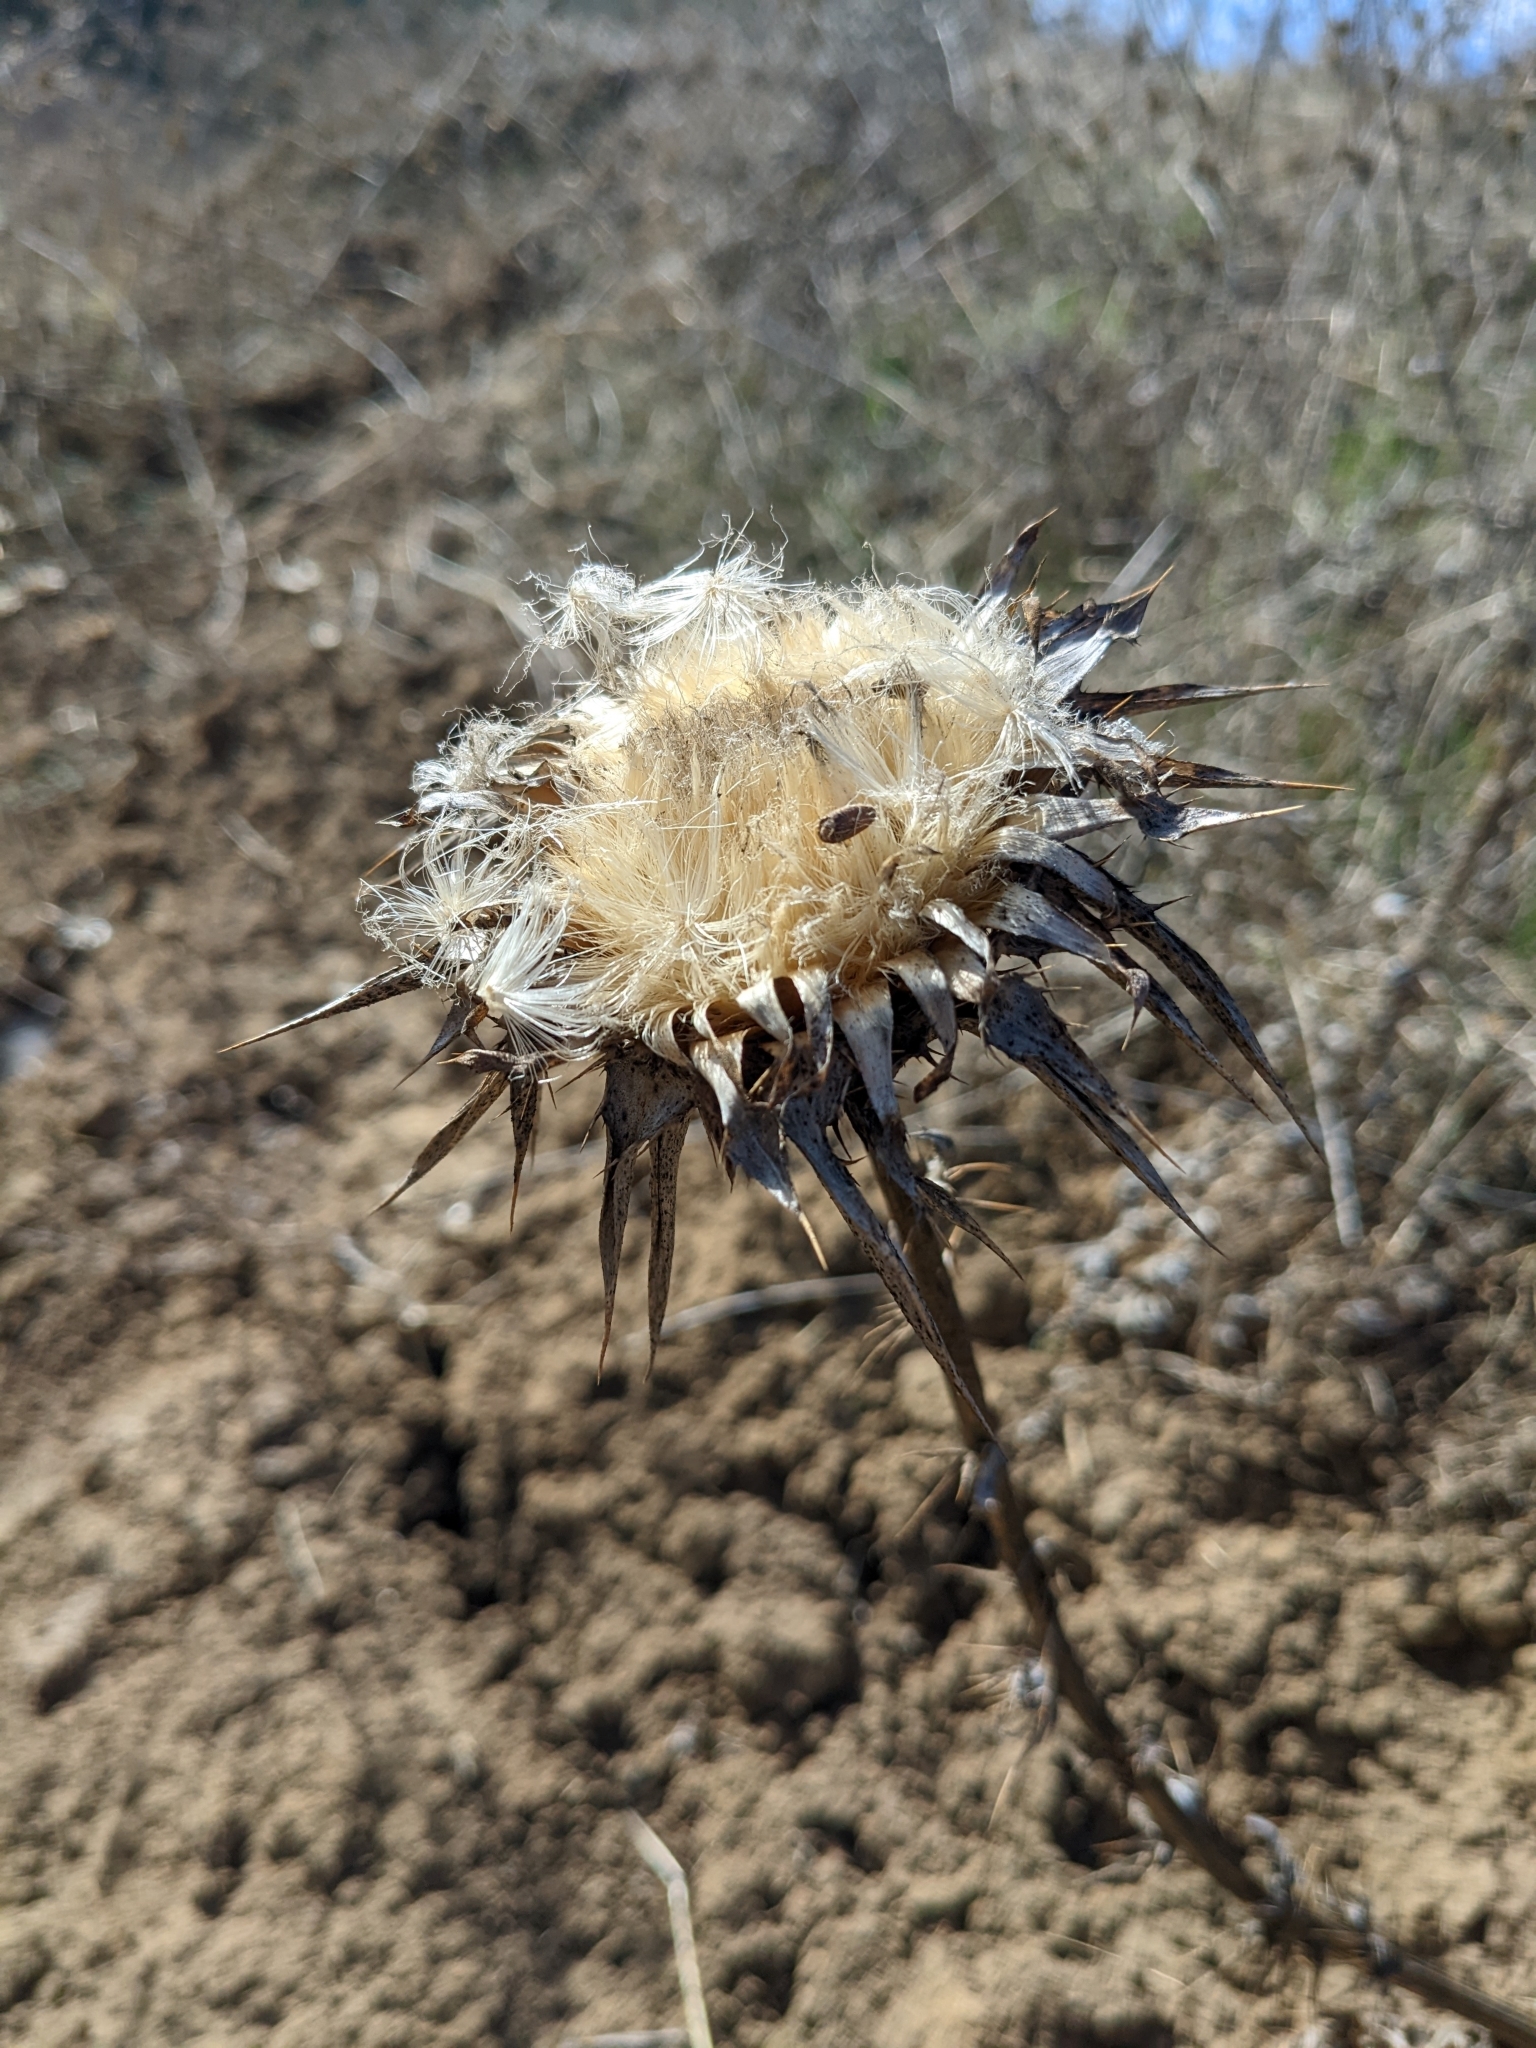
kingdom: Plantae
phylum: Tracheophyta
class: Magnoliopsida
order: Asterales
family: Asteraceae
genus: Silybum
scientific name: Silybum marianum
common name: Milk thistle
